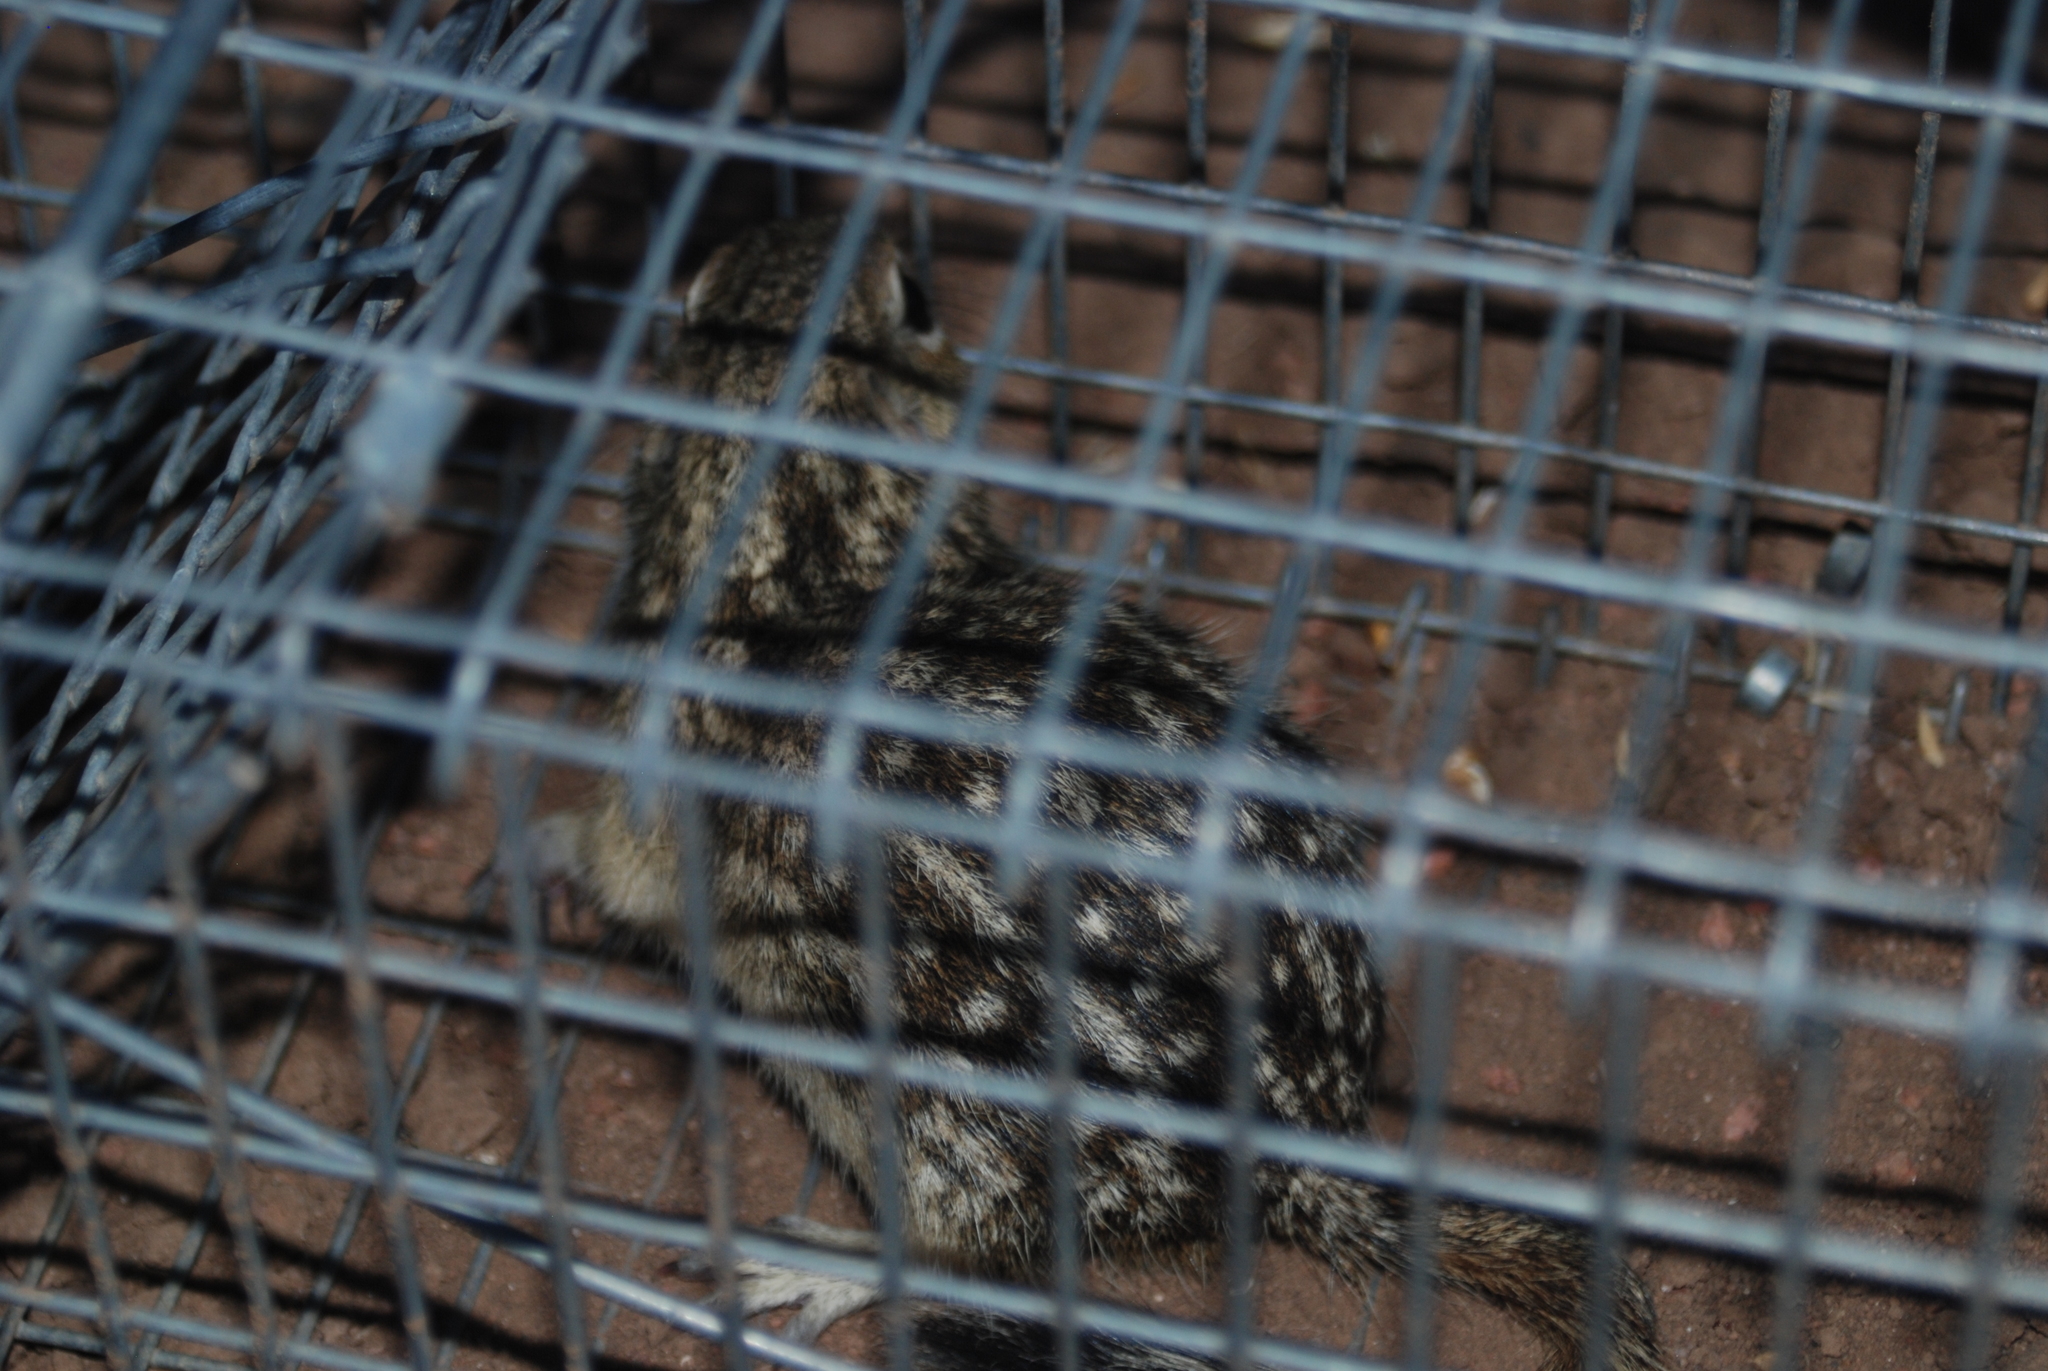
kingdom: Animalia
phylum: Chordata
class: Mammalia
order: Rodentia
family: Sciuridae
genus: Ictidomys
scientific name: Ictidomys tridecemlineatus
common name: Thirteen-lined ground squirrel
